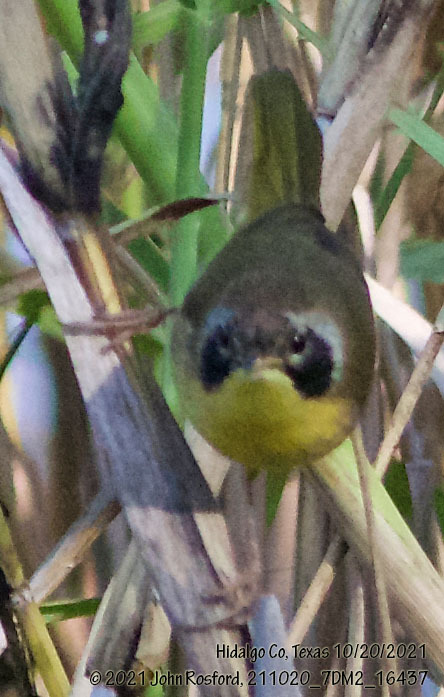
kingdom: Animalia
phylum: Chordata
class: Aves
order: Passeriformes
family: Parulidae
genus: Geothlypis
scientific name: Geothlypis trichas
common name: Common yellowthroat
